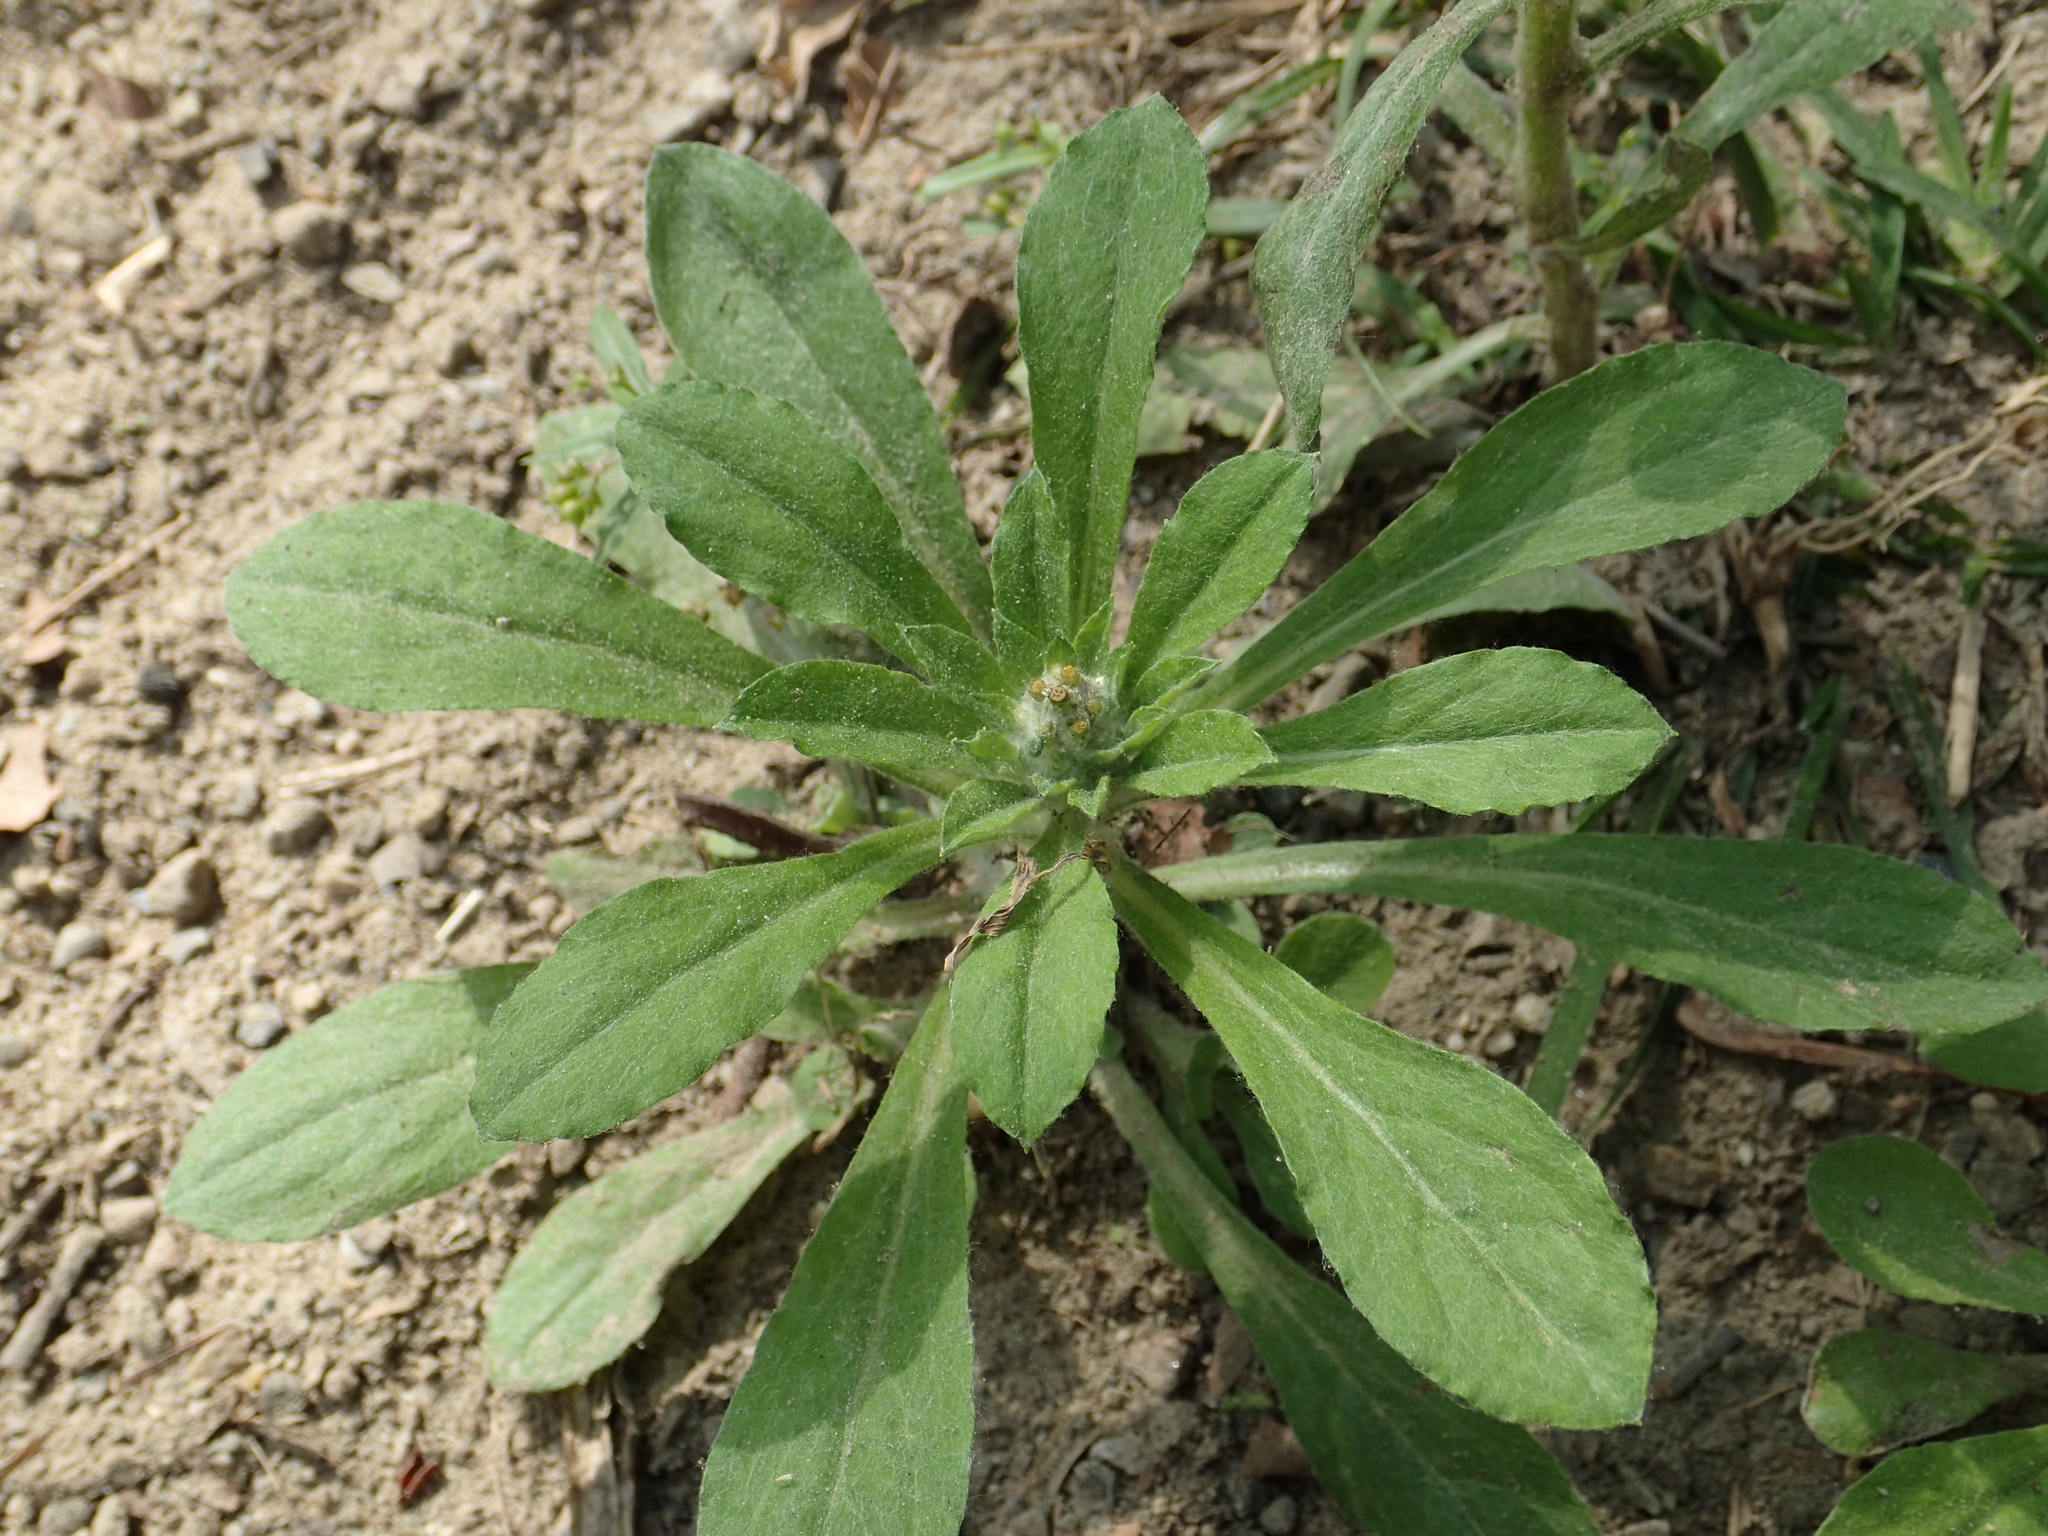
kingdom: Plantae
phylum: Tracheophyta
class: Magnoliopsida
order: Asterales
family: Asteraceae
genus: Gamochaeta
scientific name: Gamochaeta purpurea
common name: Purple cudweed
